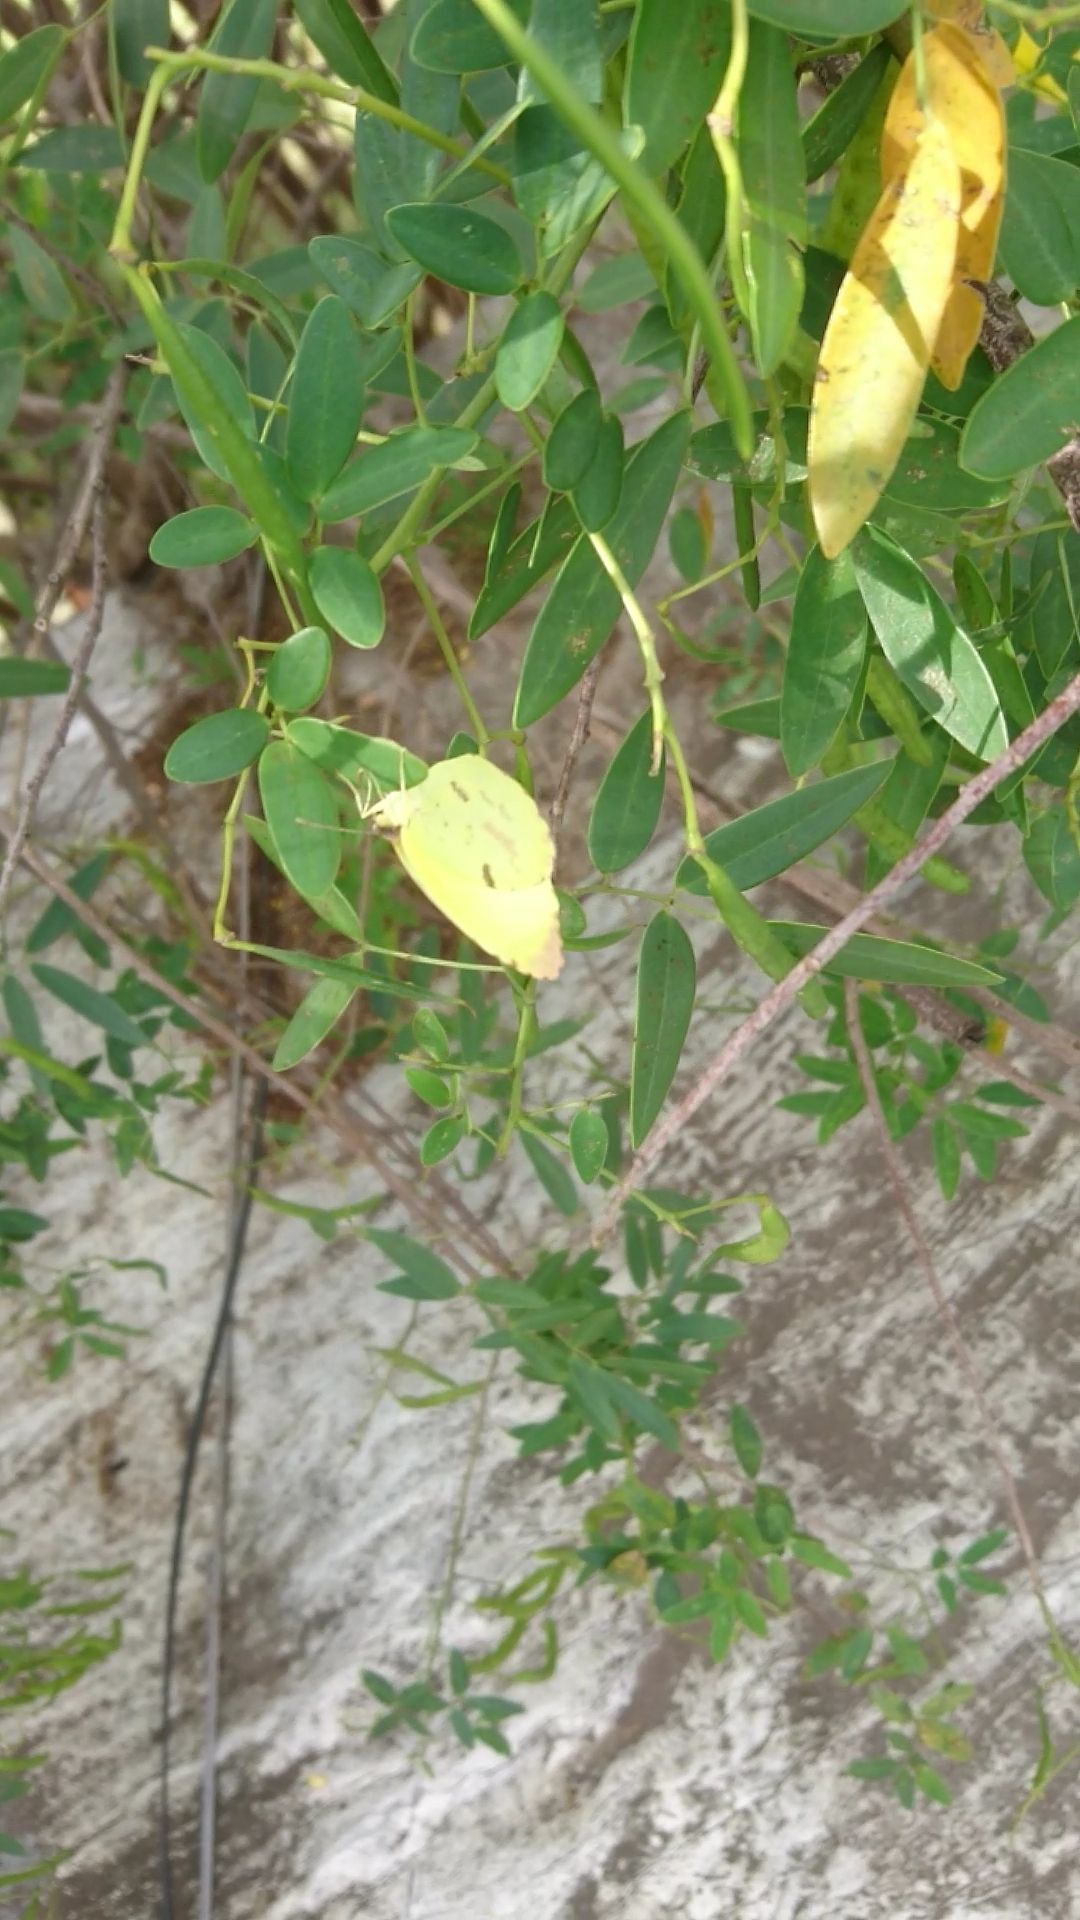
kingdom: Animalia
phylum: Arthropoda
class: Insecta
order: Lepidoptera
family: Pieridae
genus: Teriocolias
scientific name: Teriocolias
